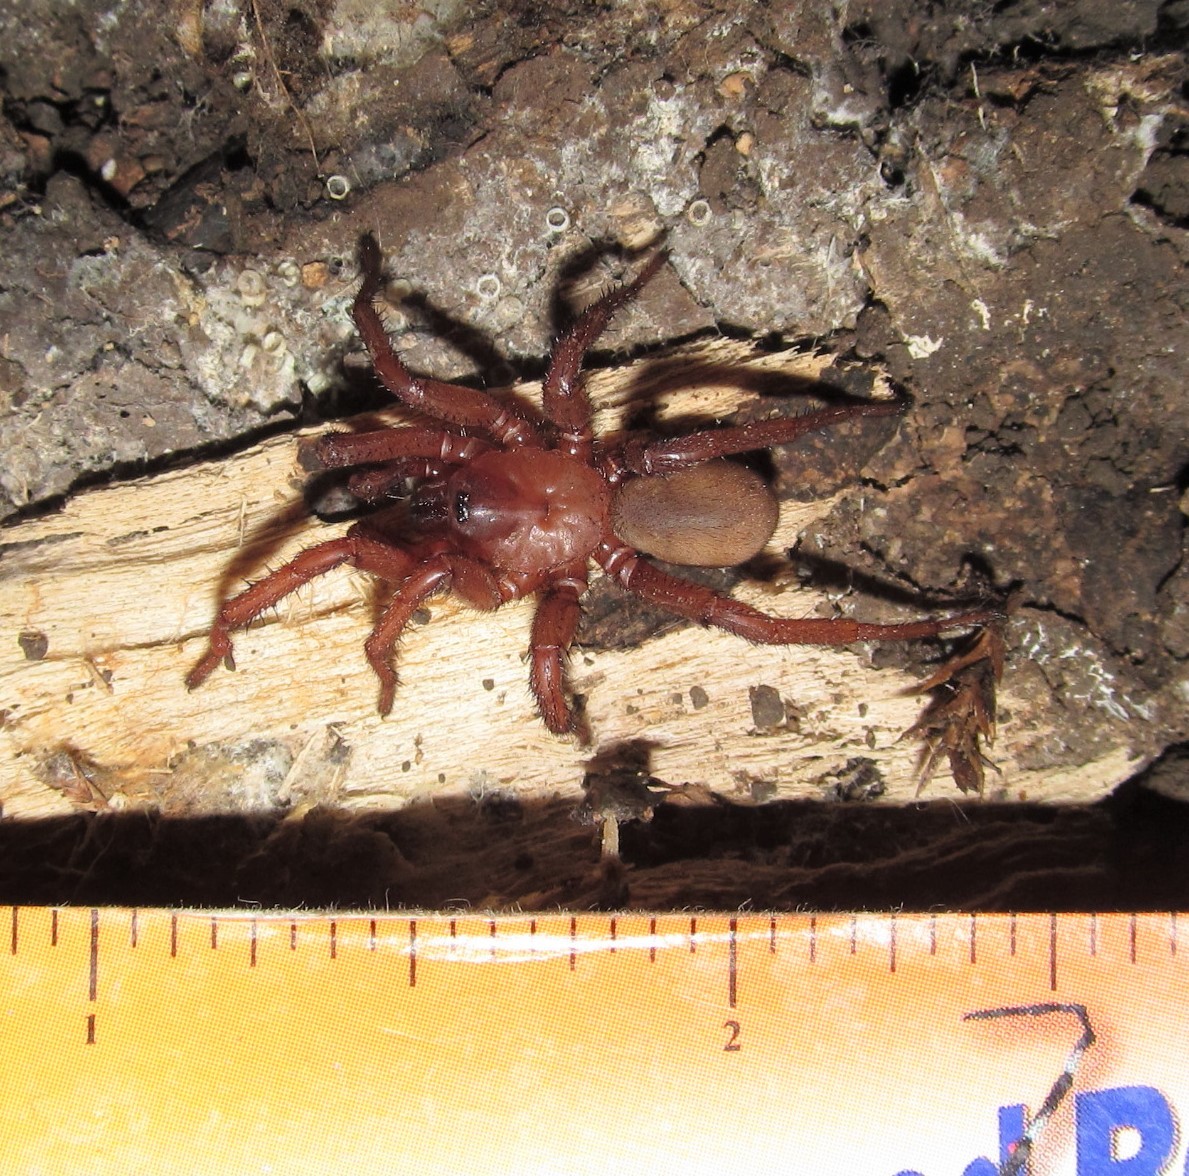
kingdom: Animalia
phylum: Arthropoda
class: Arachnida
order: Araneae
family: Euctenizidae
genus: Myrmekiaphila
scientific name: Myrmekiaphila comstocki
